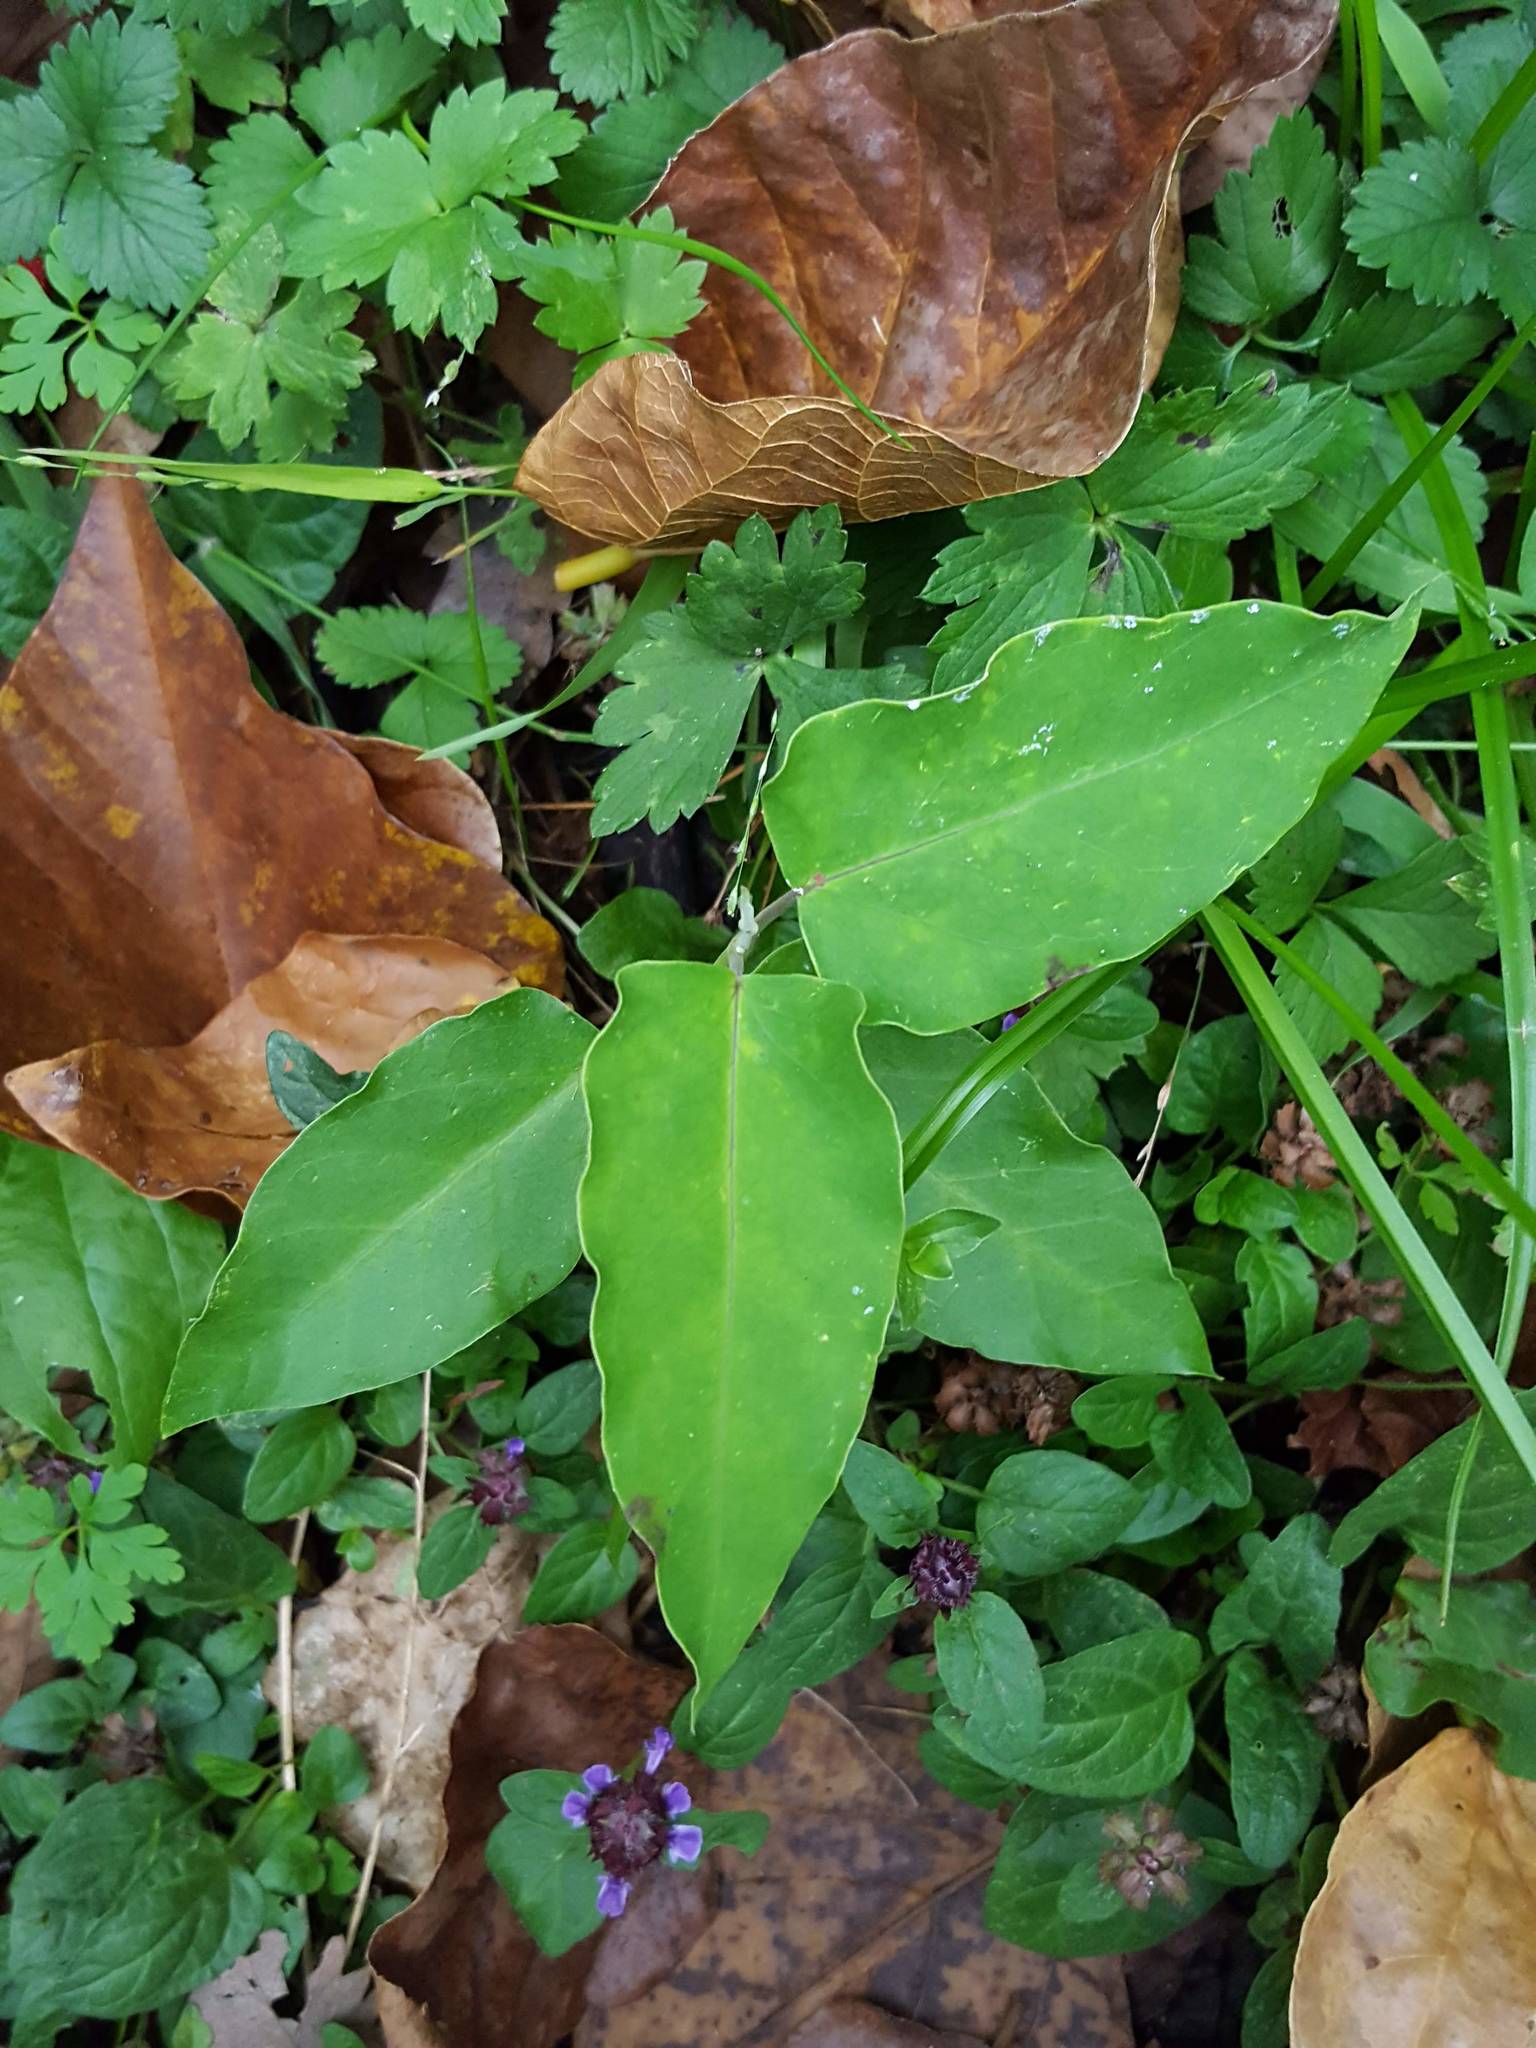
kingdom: Plantae
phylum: Tracheophyta
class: Magnoliopsida
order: Gentianales
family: Apocynaceae
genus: Araujia
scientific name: Araujia sericifera
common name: White bladderflower
